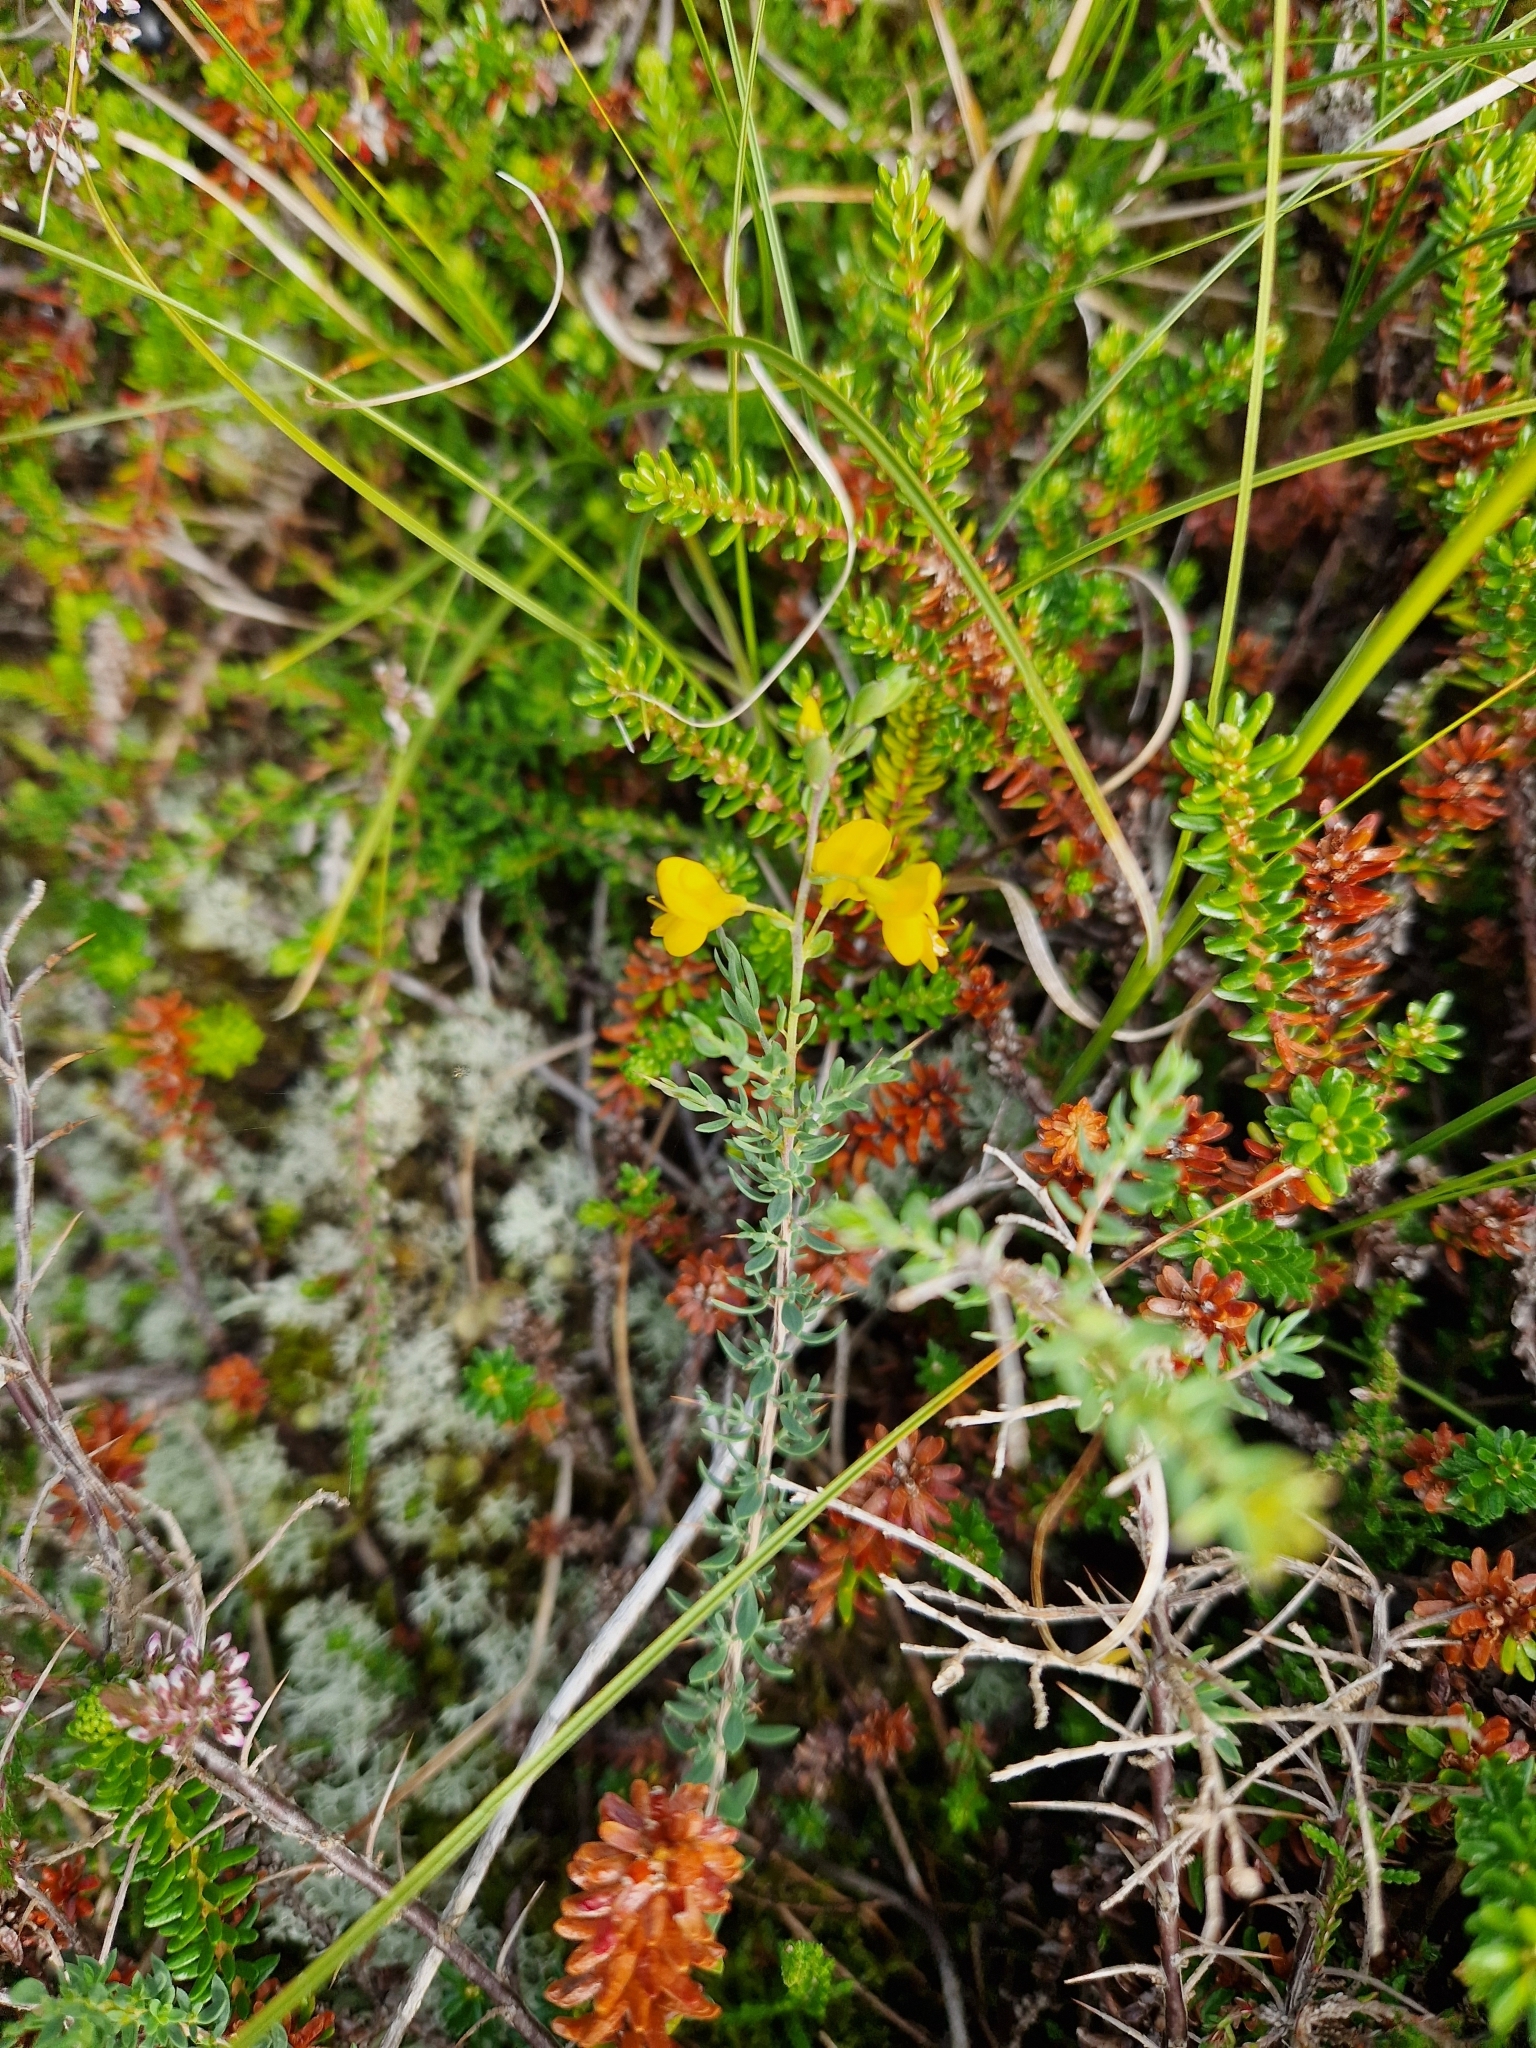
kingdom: Plantae
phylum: Tracheophyta
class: Magnoliopsida
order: Fabales
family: Fabaceae
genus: Genista
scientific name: Genista anglica
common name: Petty whin
